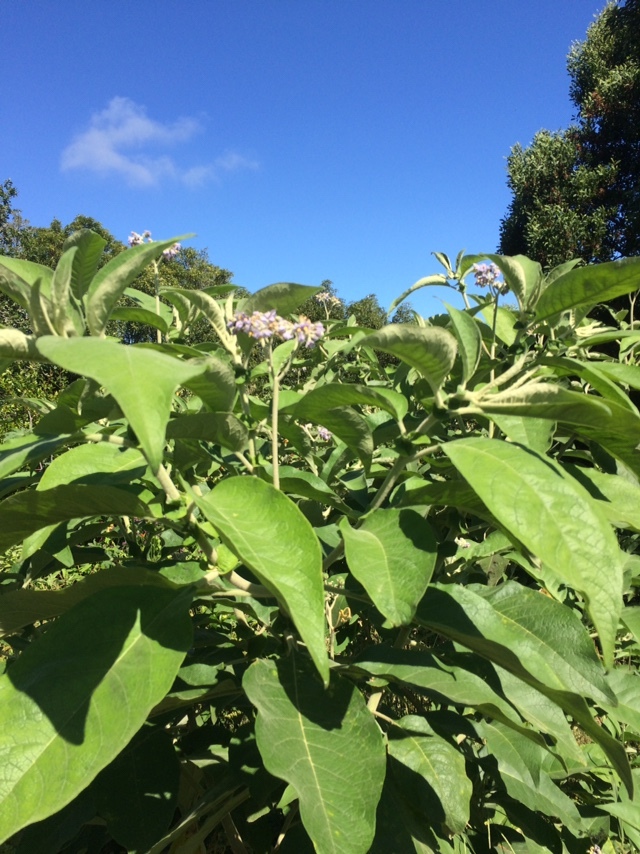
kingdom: Plantae
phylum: Tracheophyta
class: Magnoliopsida
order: Solanales
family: Solanaceae
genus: Solanum
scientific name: Solanum mauritianum
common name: Earleaf nightshade
